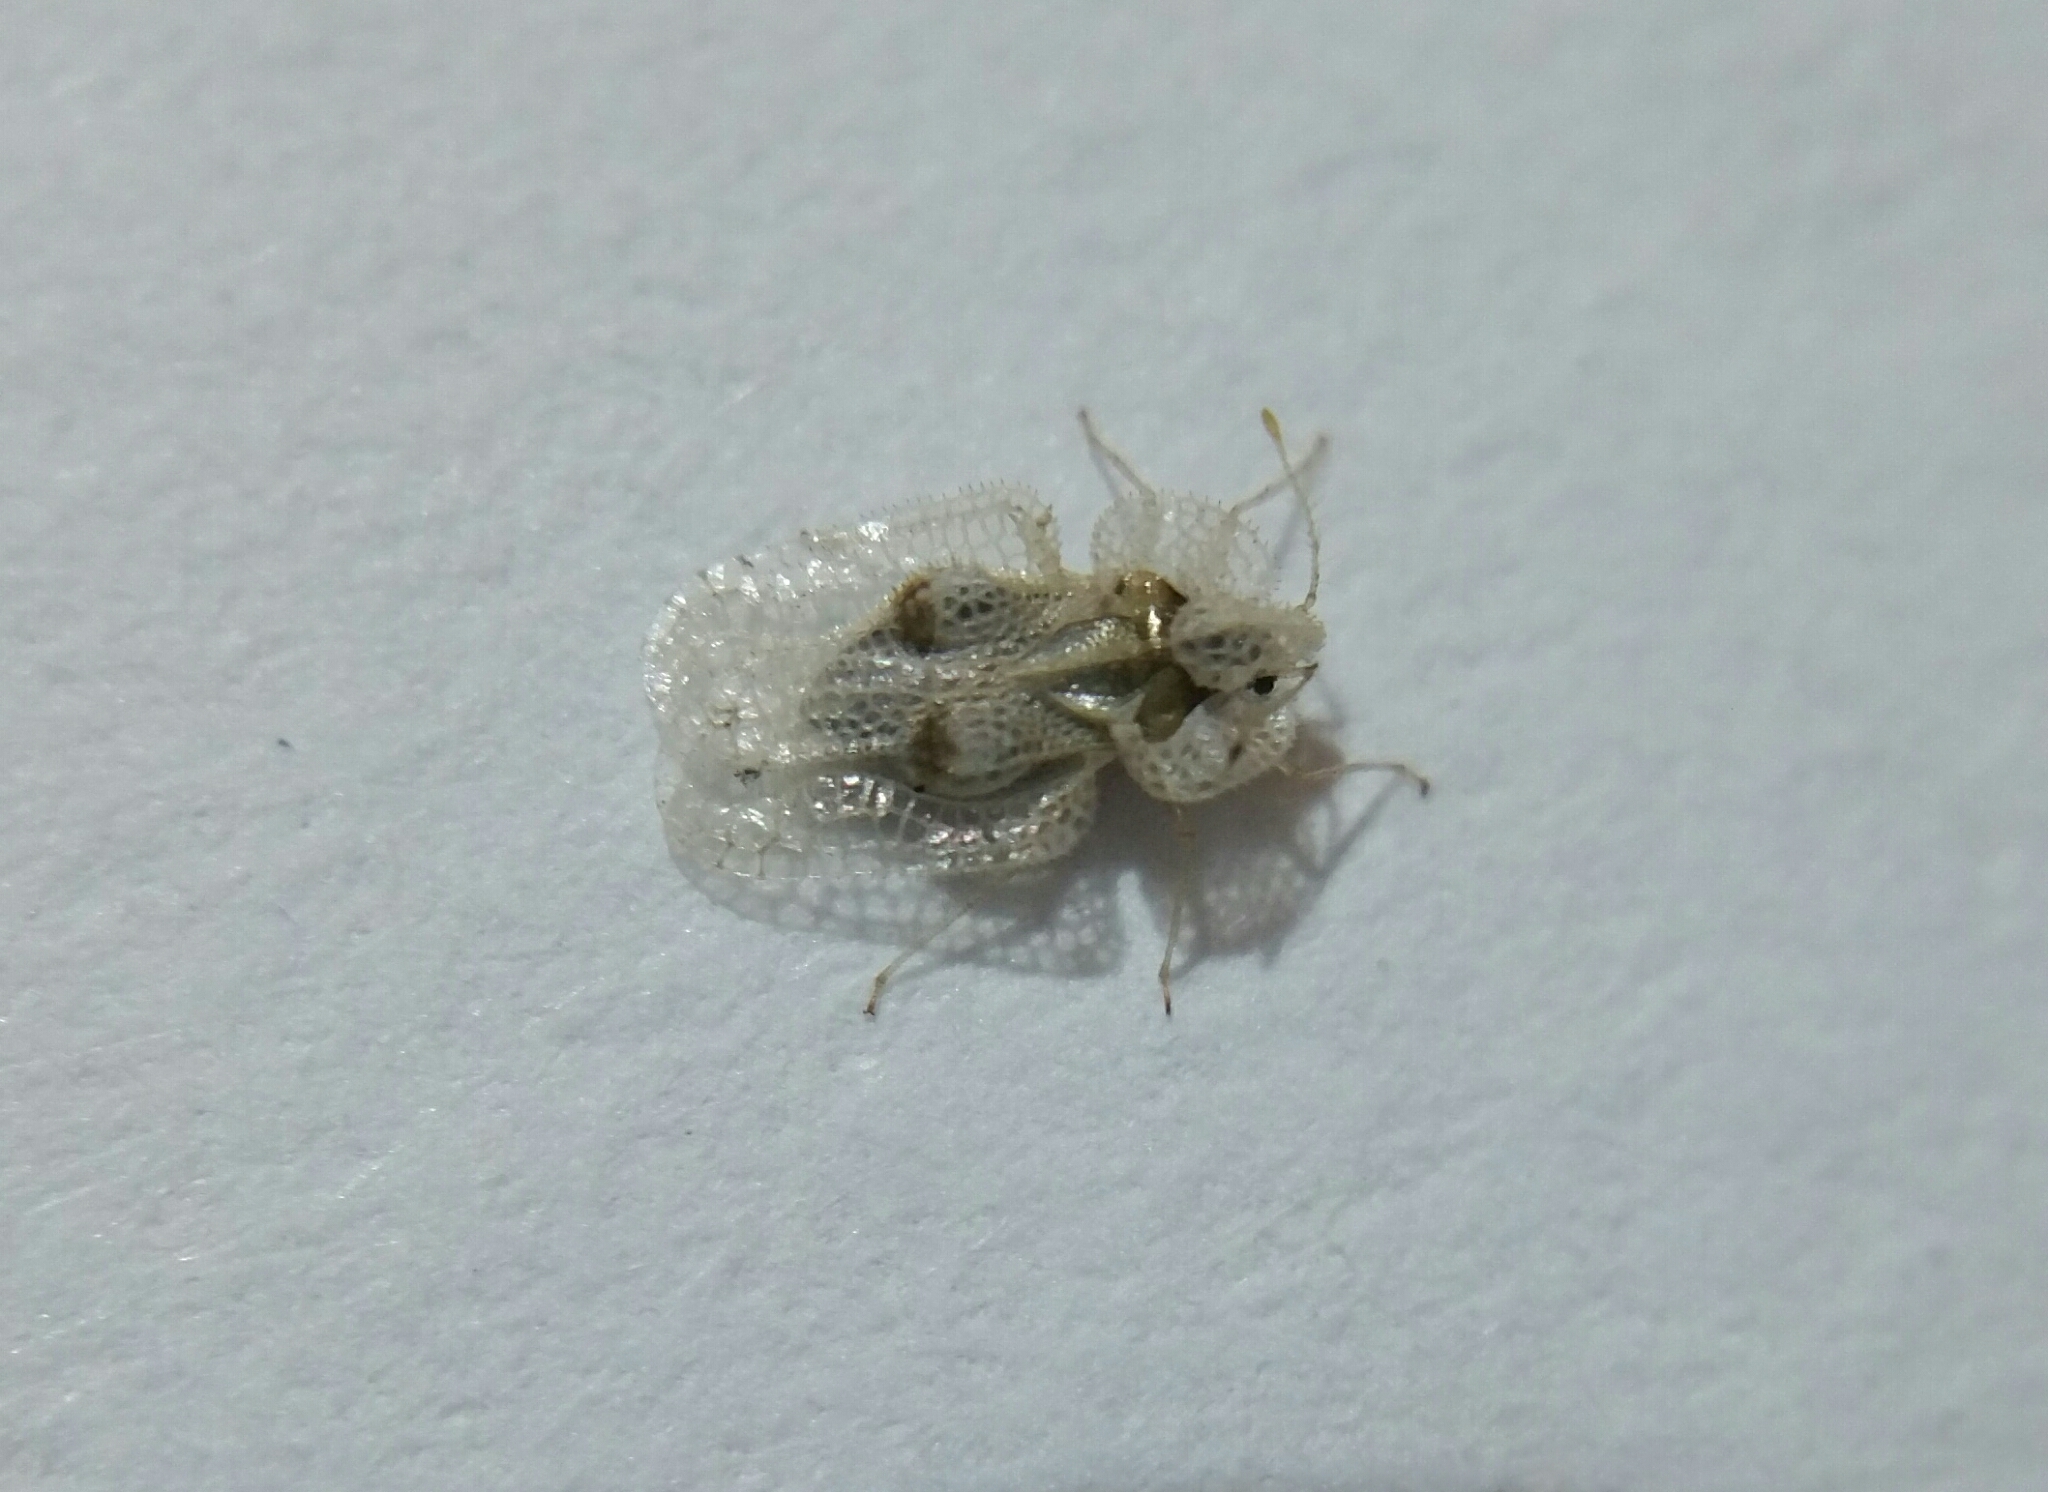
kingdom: Animalia
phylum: Arthropoda
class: Insecta
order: Hemiptera
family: Tingidae
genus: Corythucha
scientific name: Corythucha ciliata
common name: Sycamore lace bug
